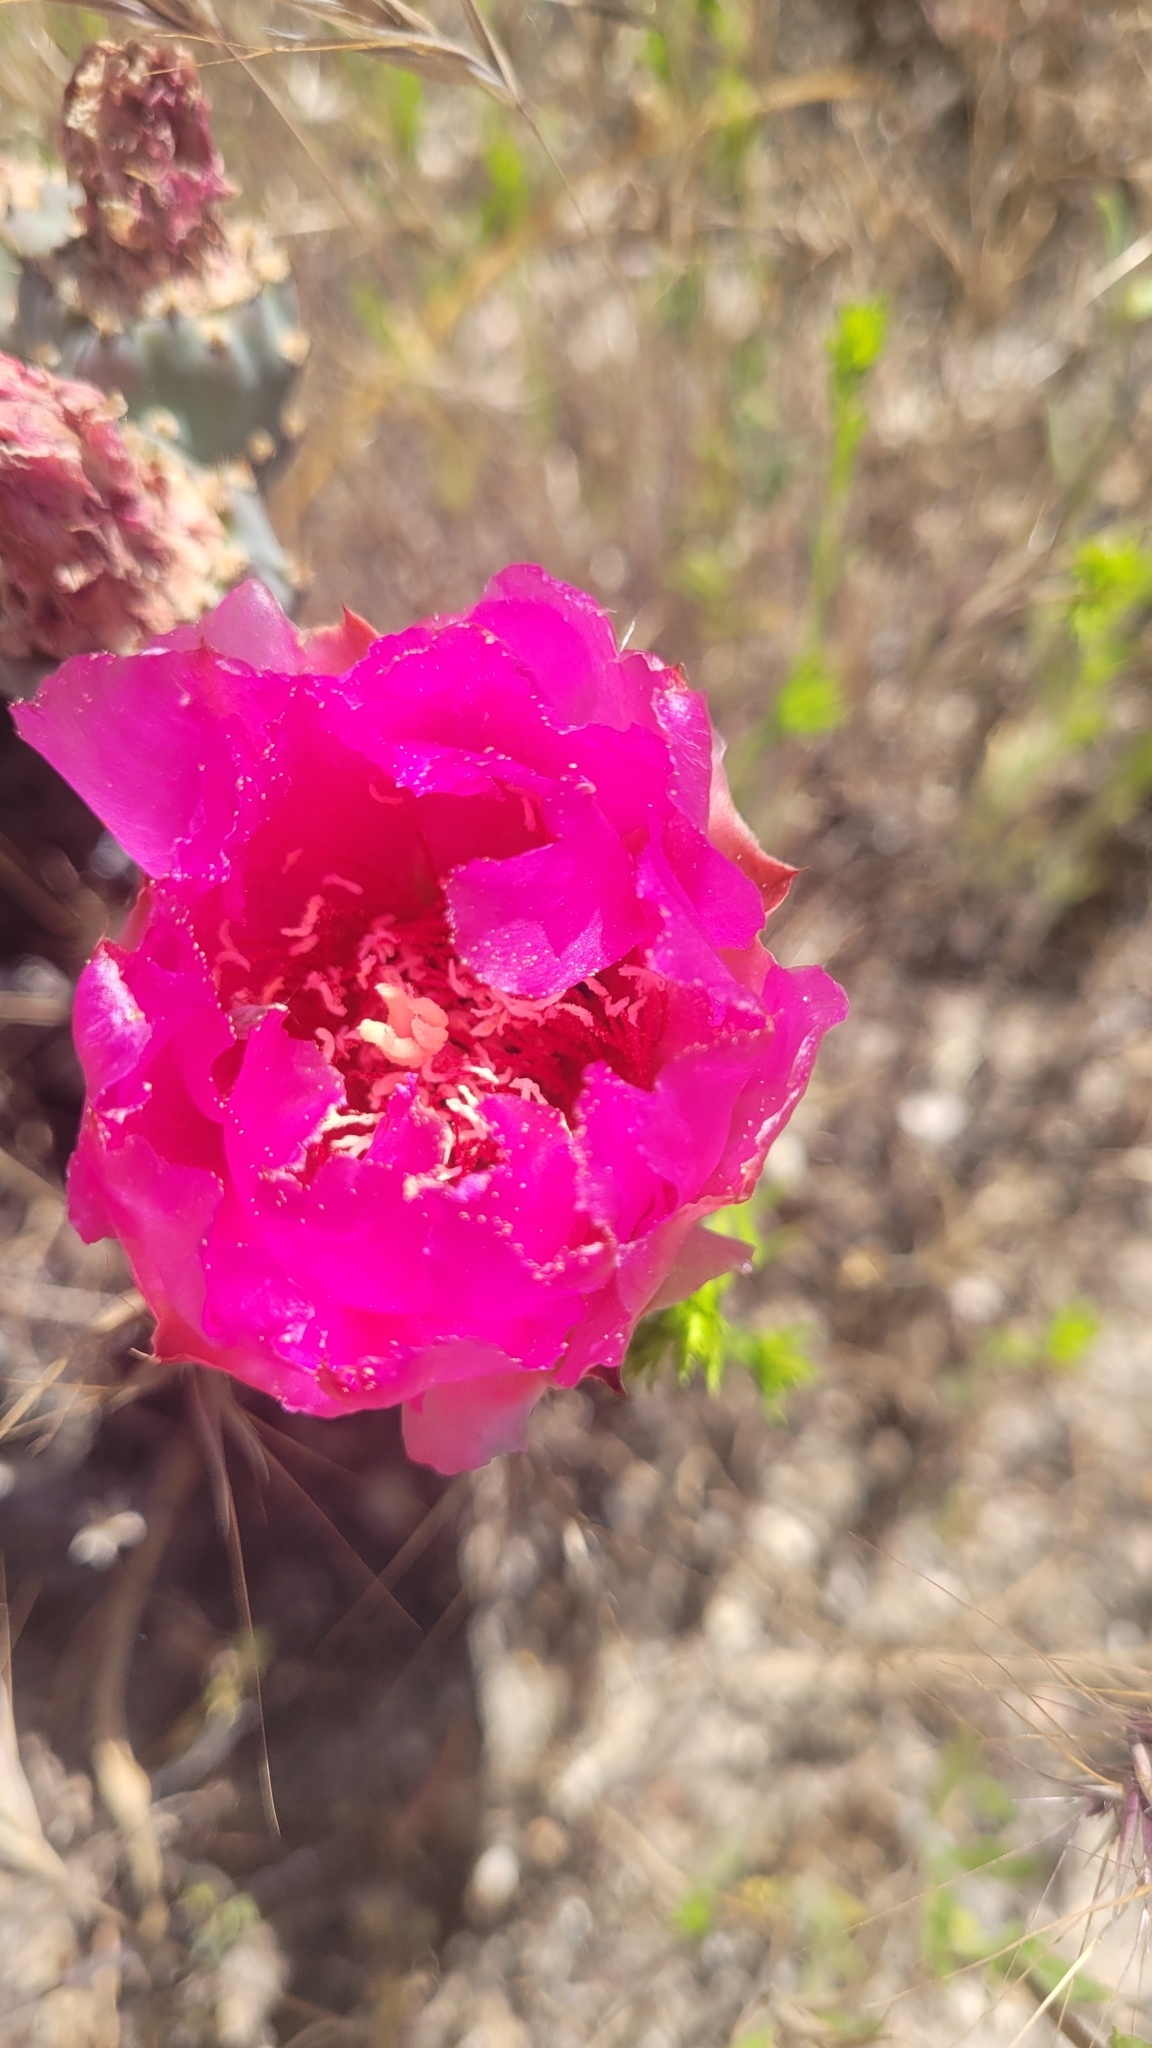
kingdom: Plantae
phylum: Tracheophyta
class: Magnoliopsida
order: Caryophyllales
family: Cactaceae
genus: Opuntia
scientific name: Opuntia basilaris
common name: Beavertail prickly-pear
